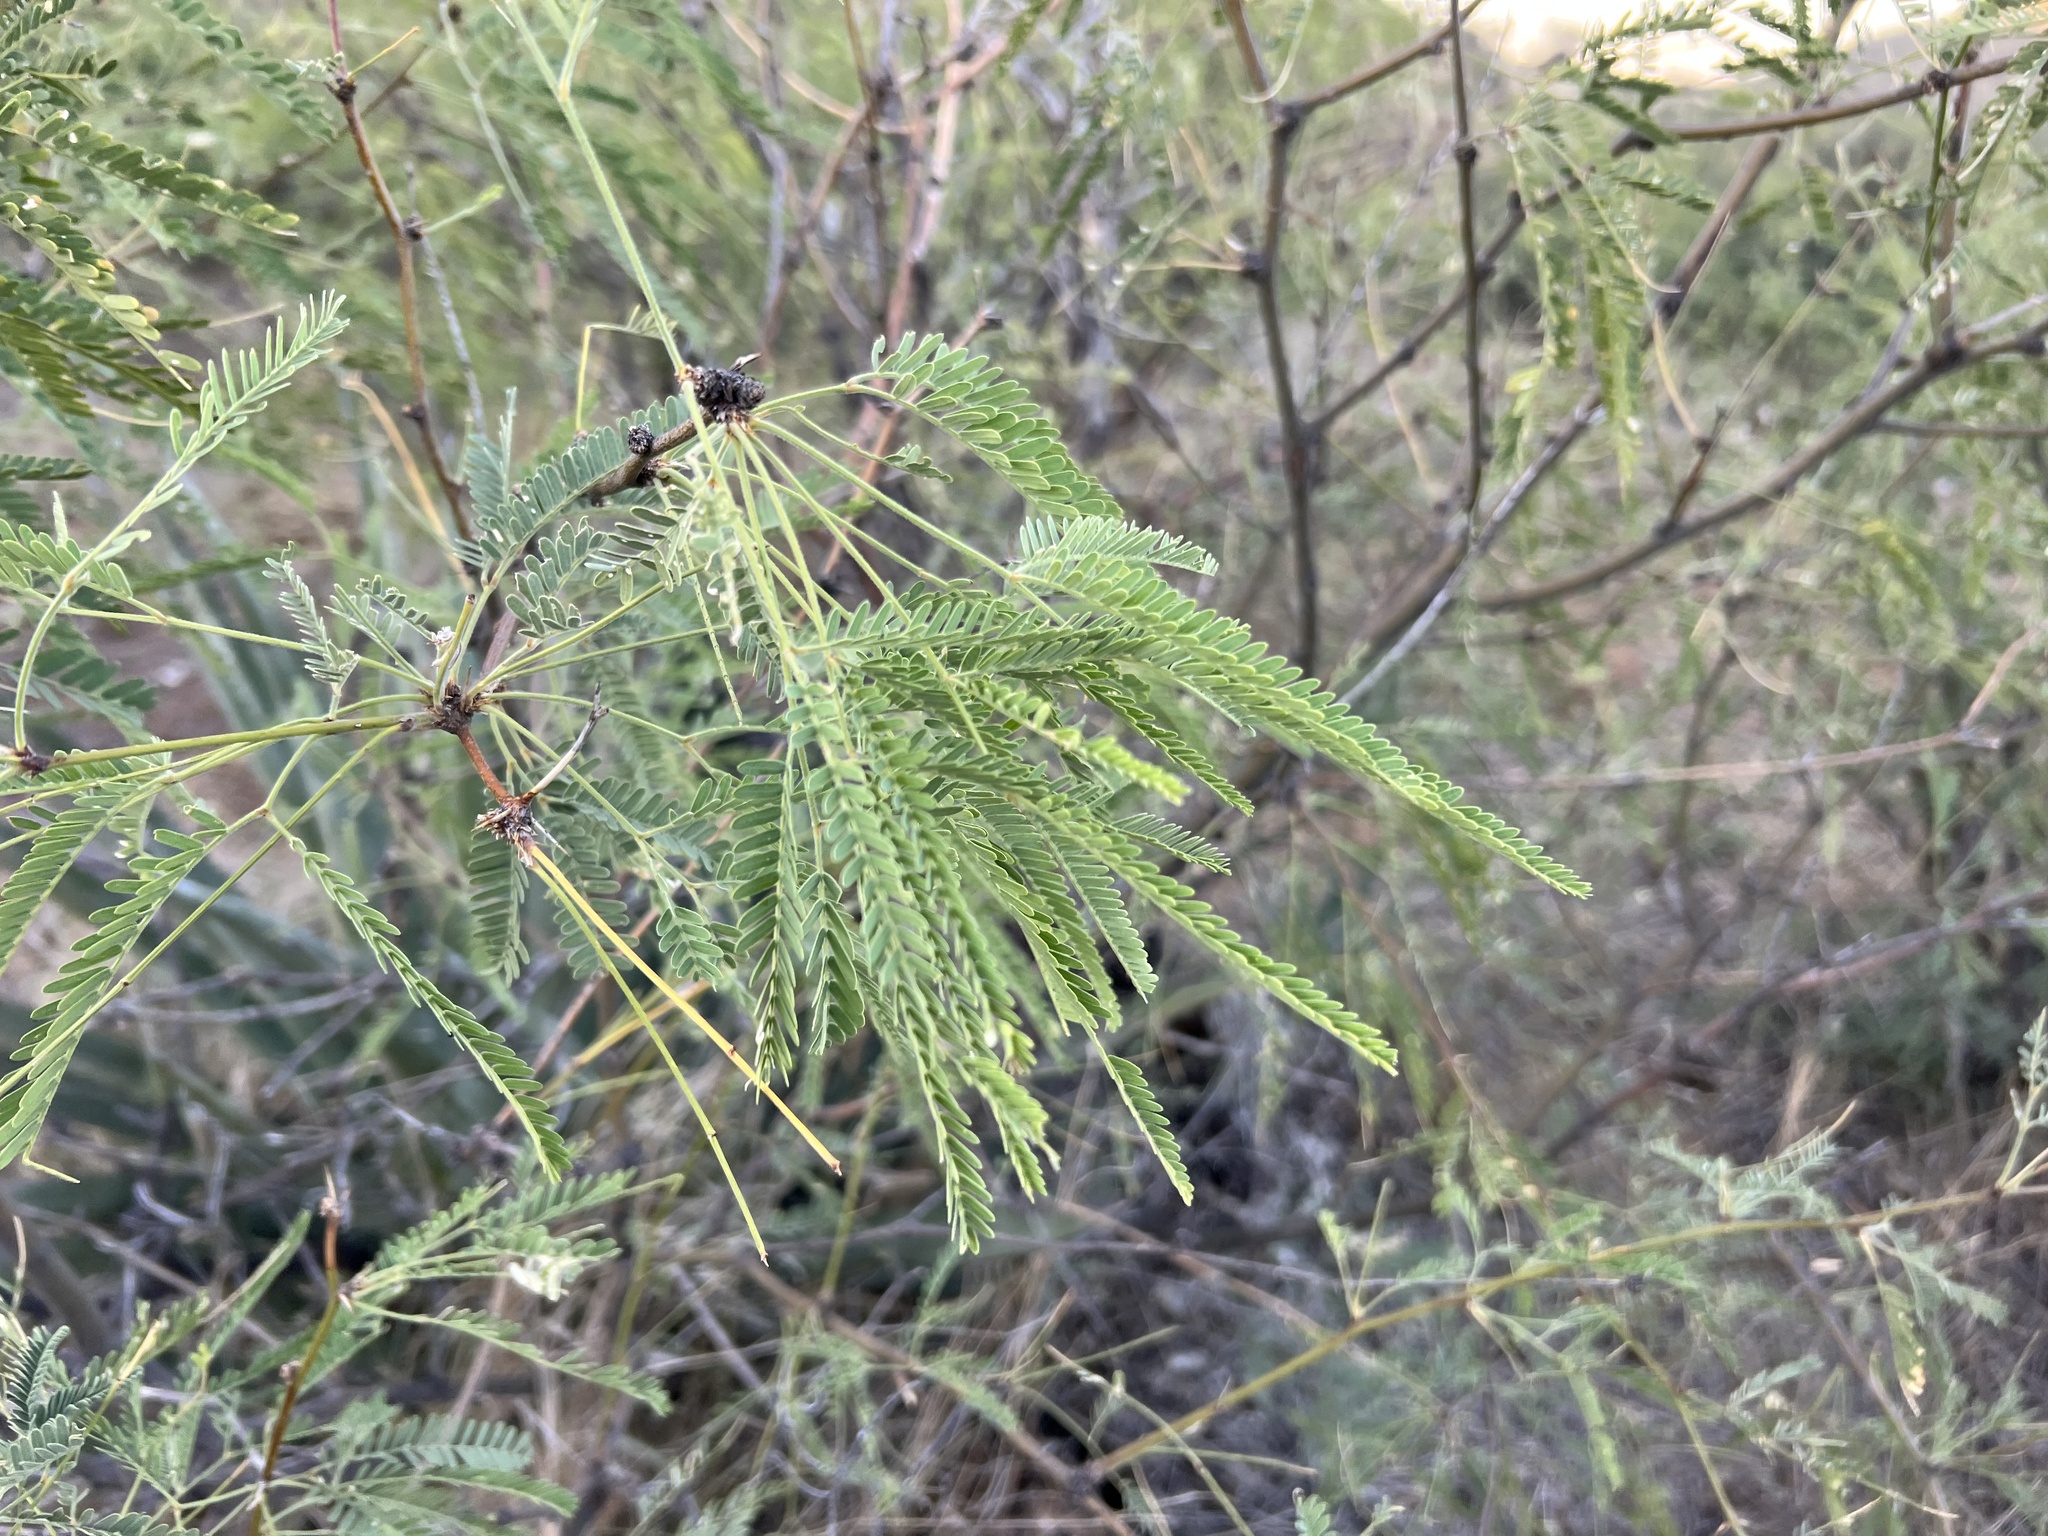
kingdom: Plantae
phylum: Tracheophyta
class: Magnoliopsida
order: Fabales
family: Fabaceae
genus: Prosopis
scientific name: Prosopis velutina
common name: Velvet mesquite
